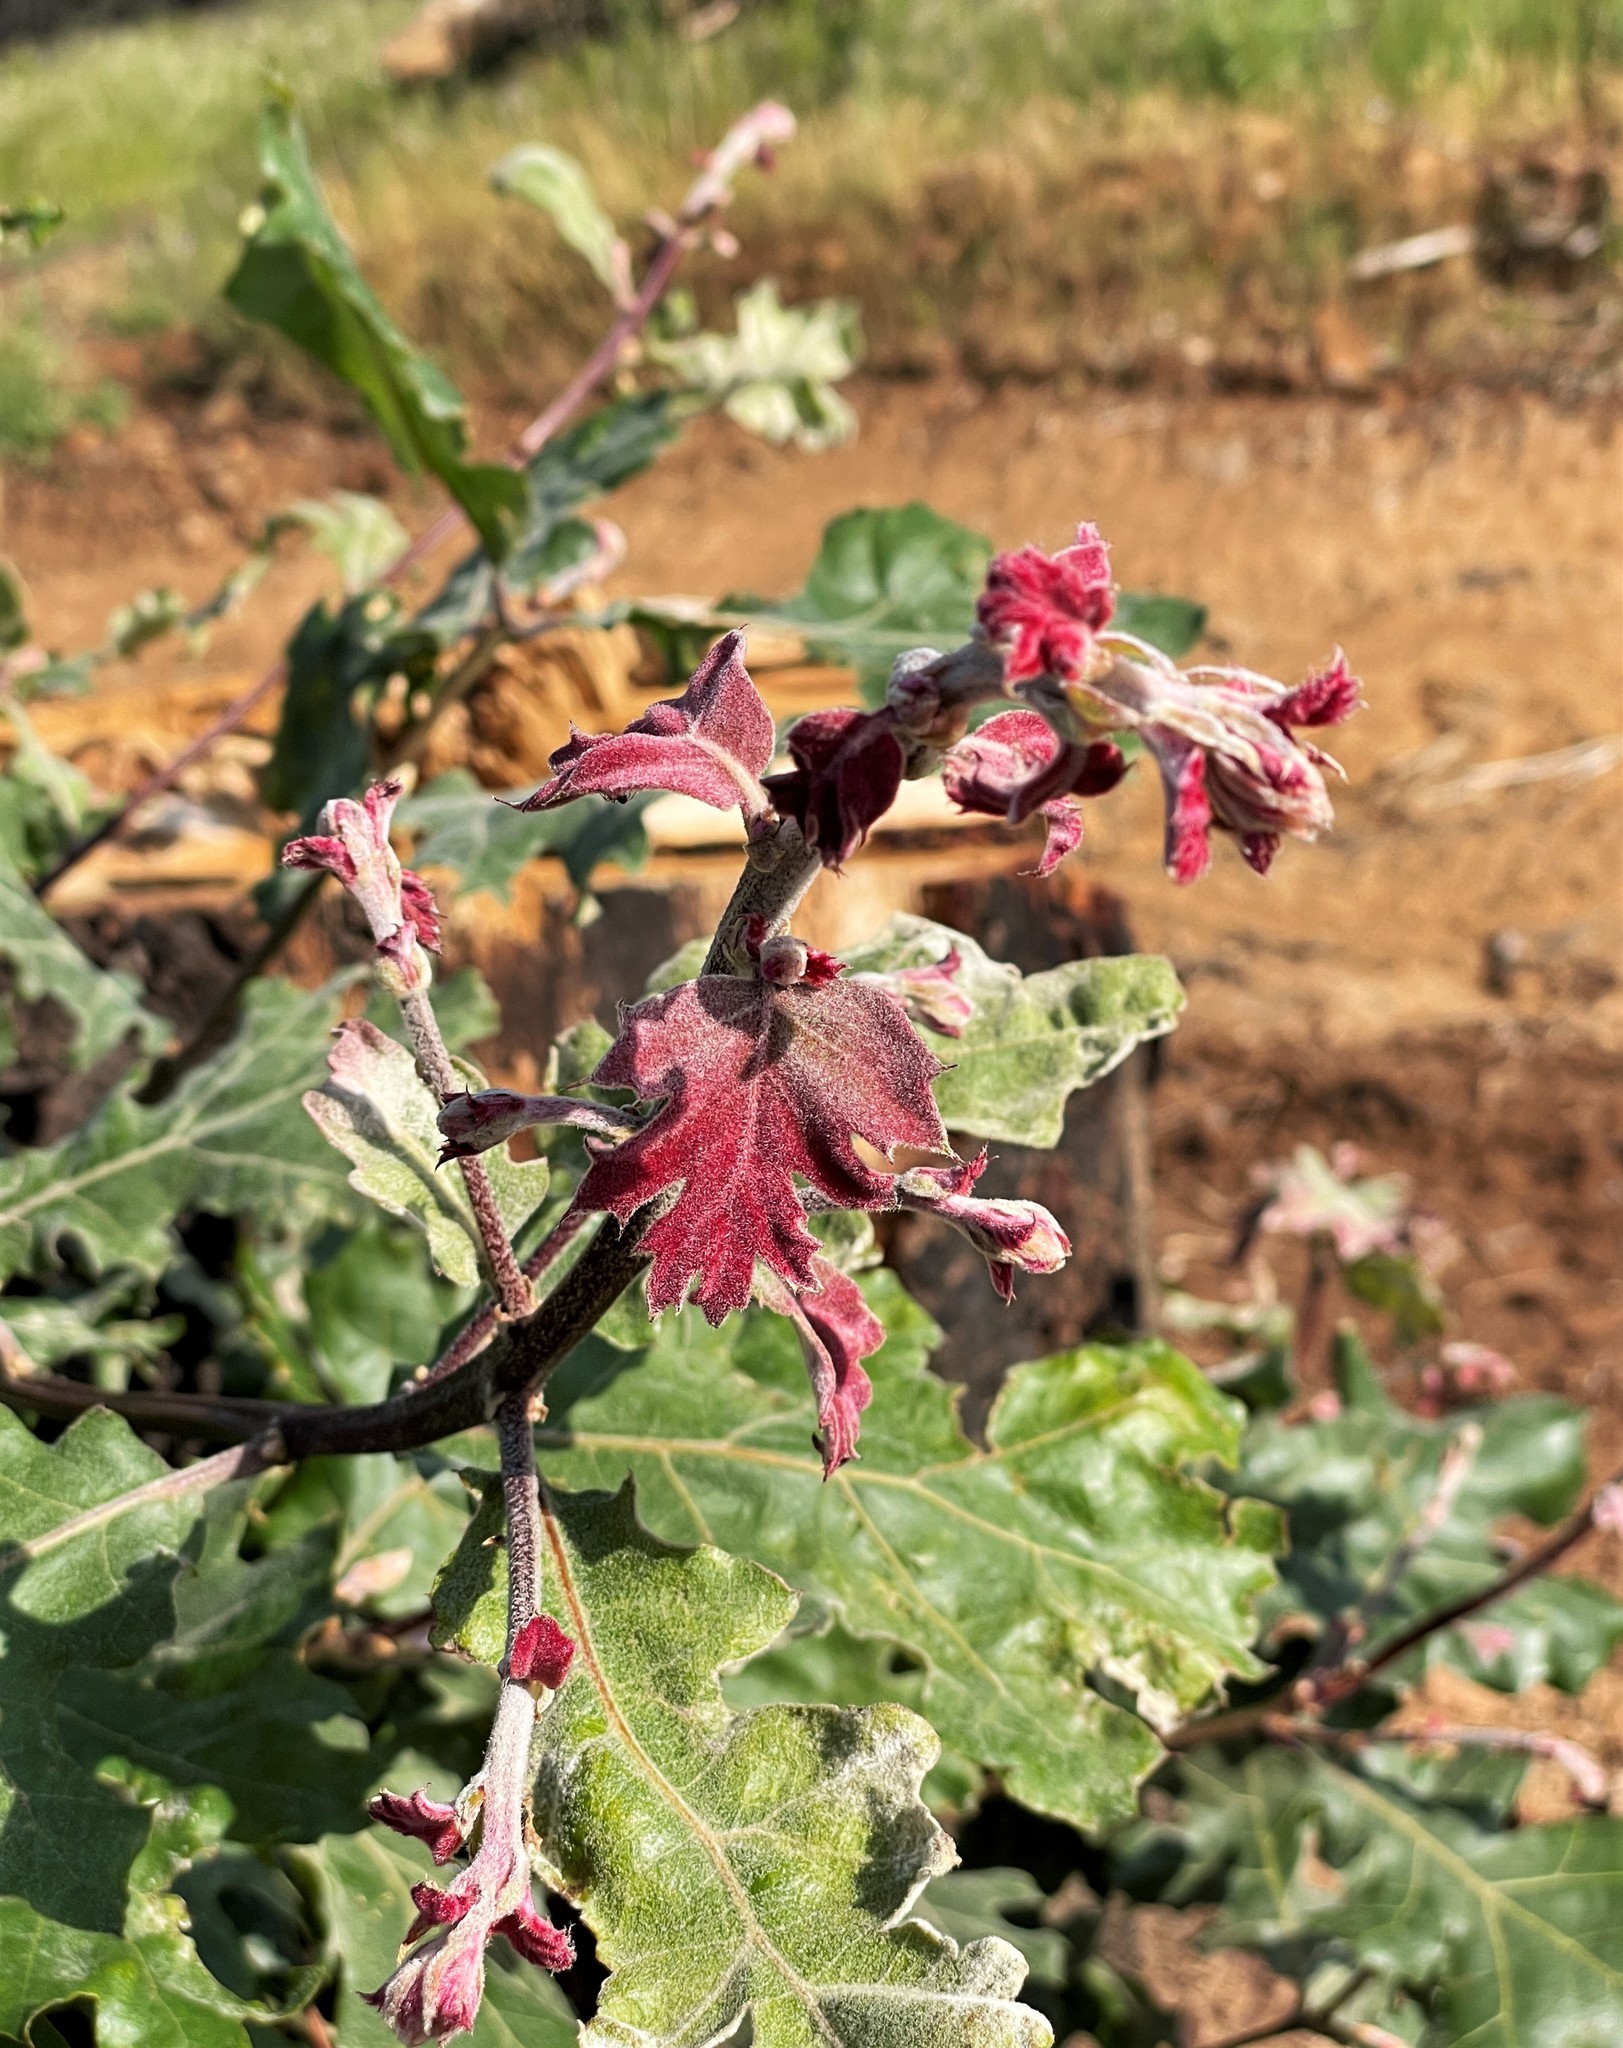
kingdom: Plantae
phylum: Tracheophyta
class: Magnoliopsida
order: Fagales
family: Fagaceae
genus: Quercus
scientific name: Quercus kelloggii
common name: California black oak
